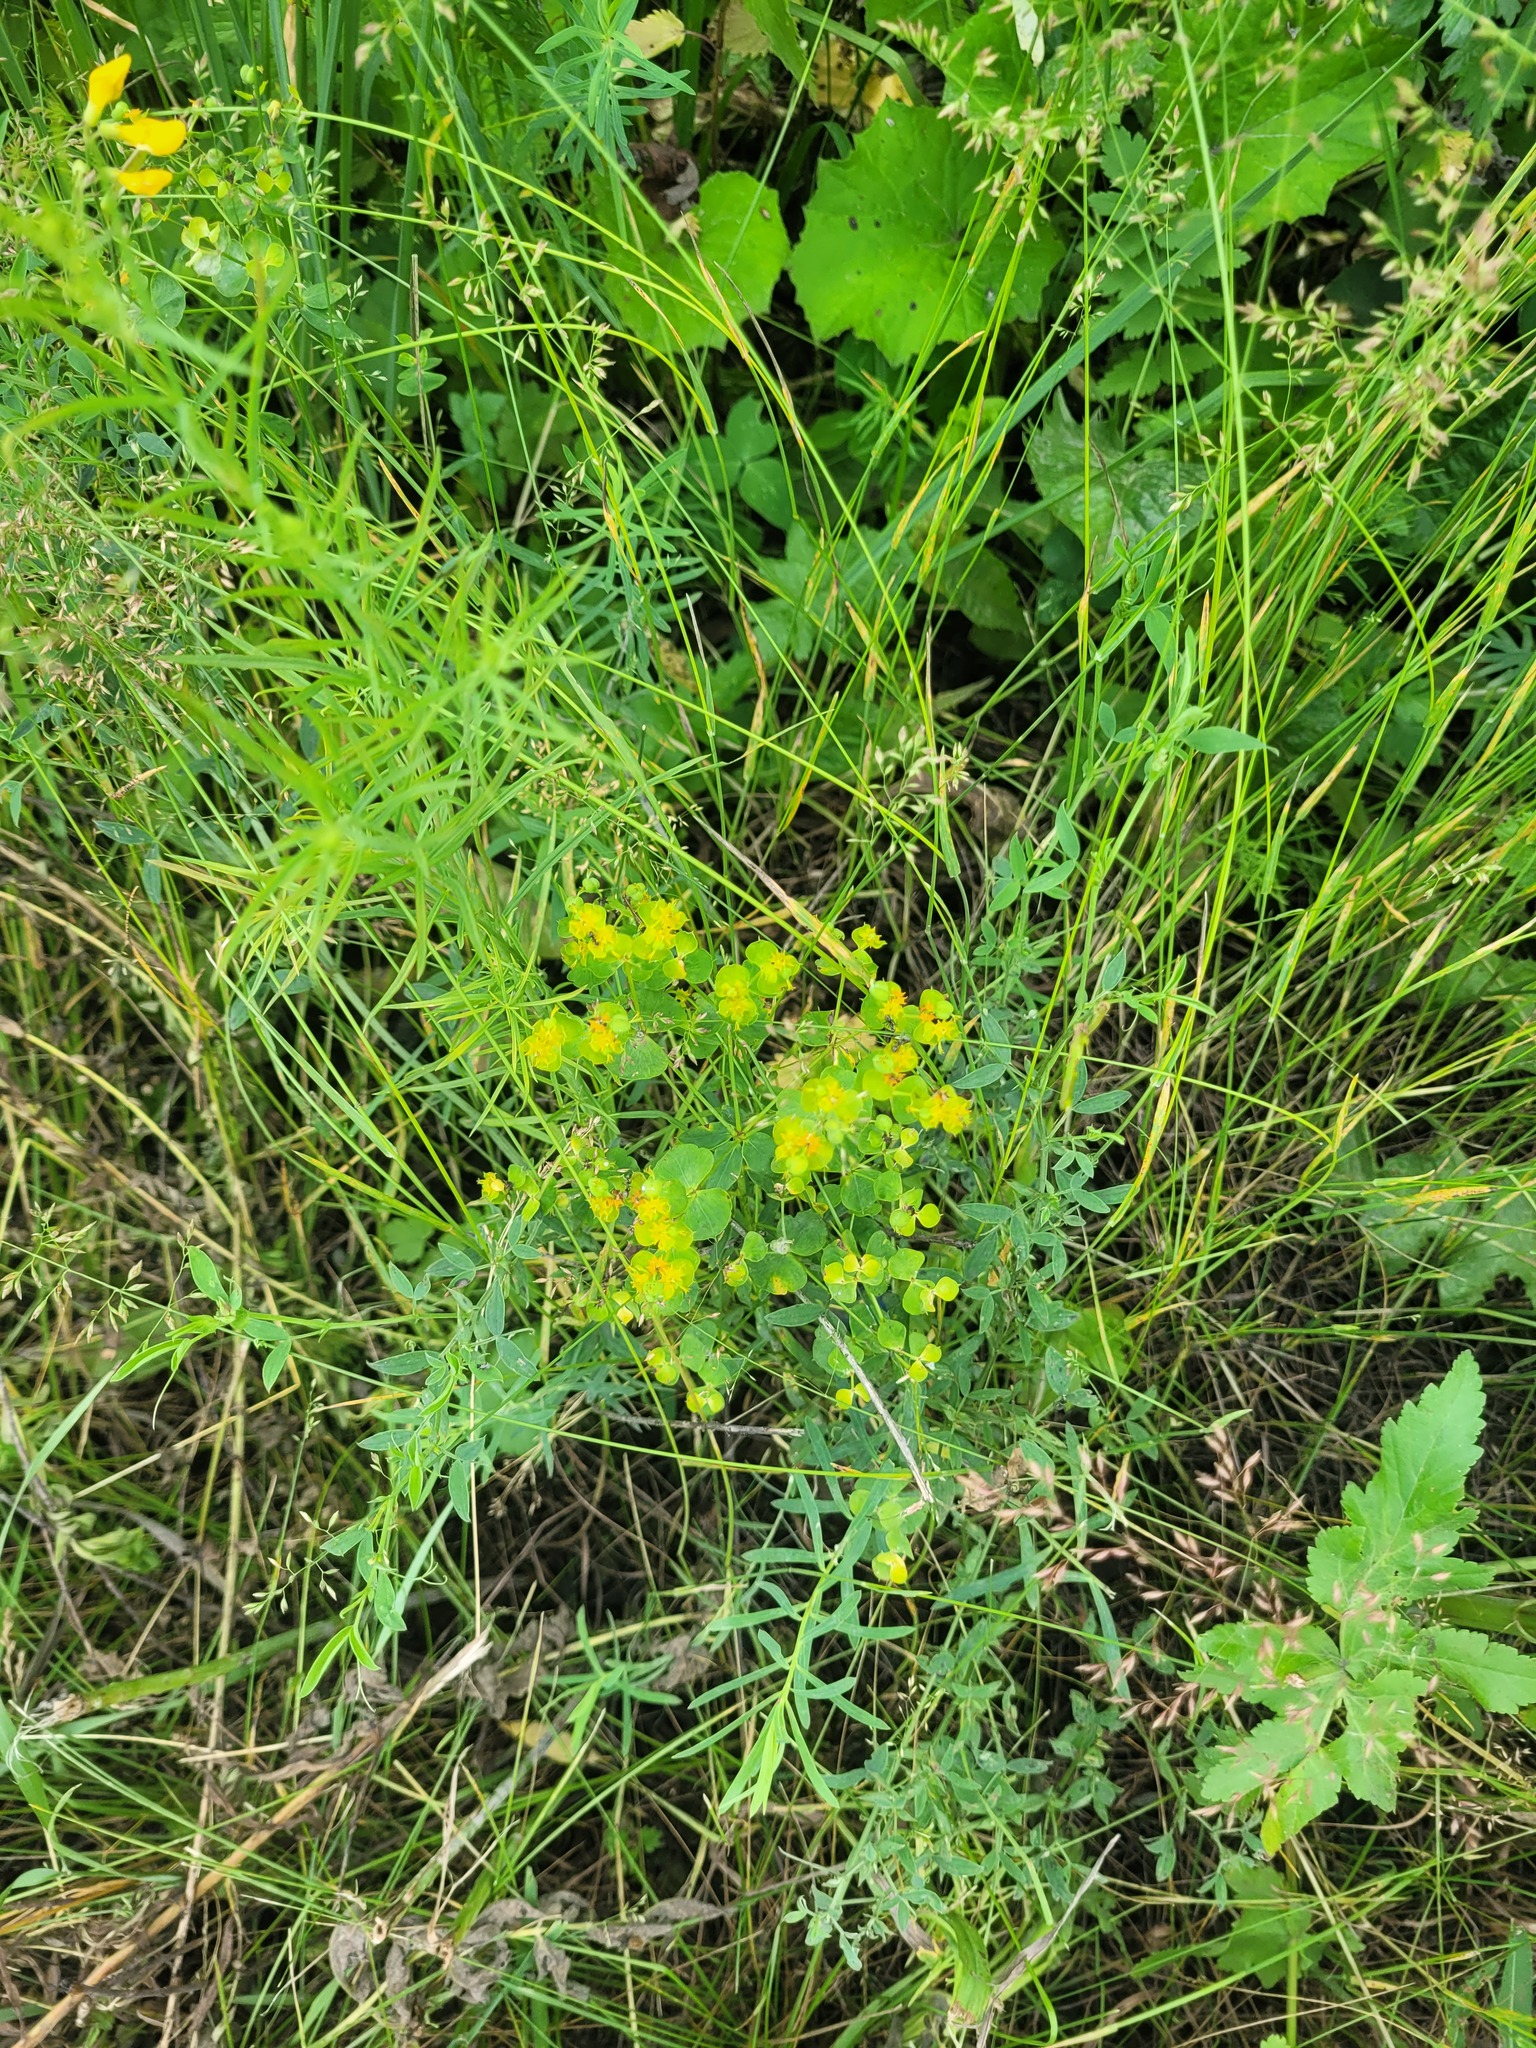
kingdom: Plantae
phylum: Tracheophyta
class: Magnoliopsida
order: Malpighiales
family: Euphorbiaceae
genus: Euphorbia
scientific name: Euphorbia virgata
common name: Leafy spurge
